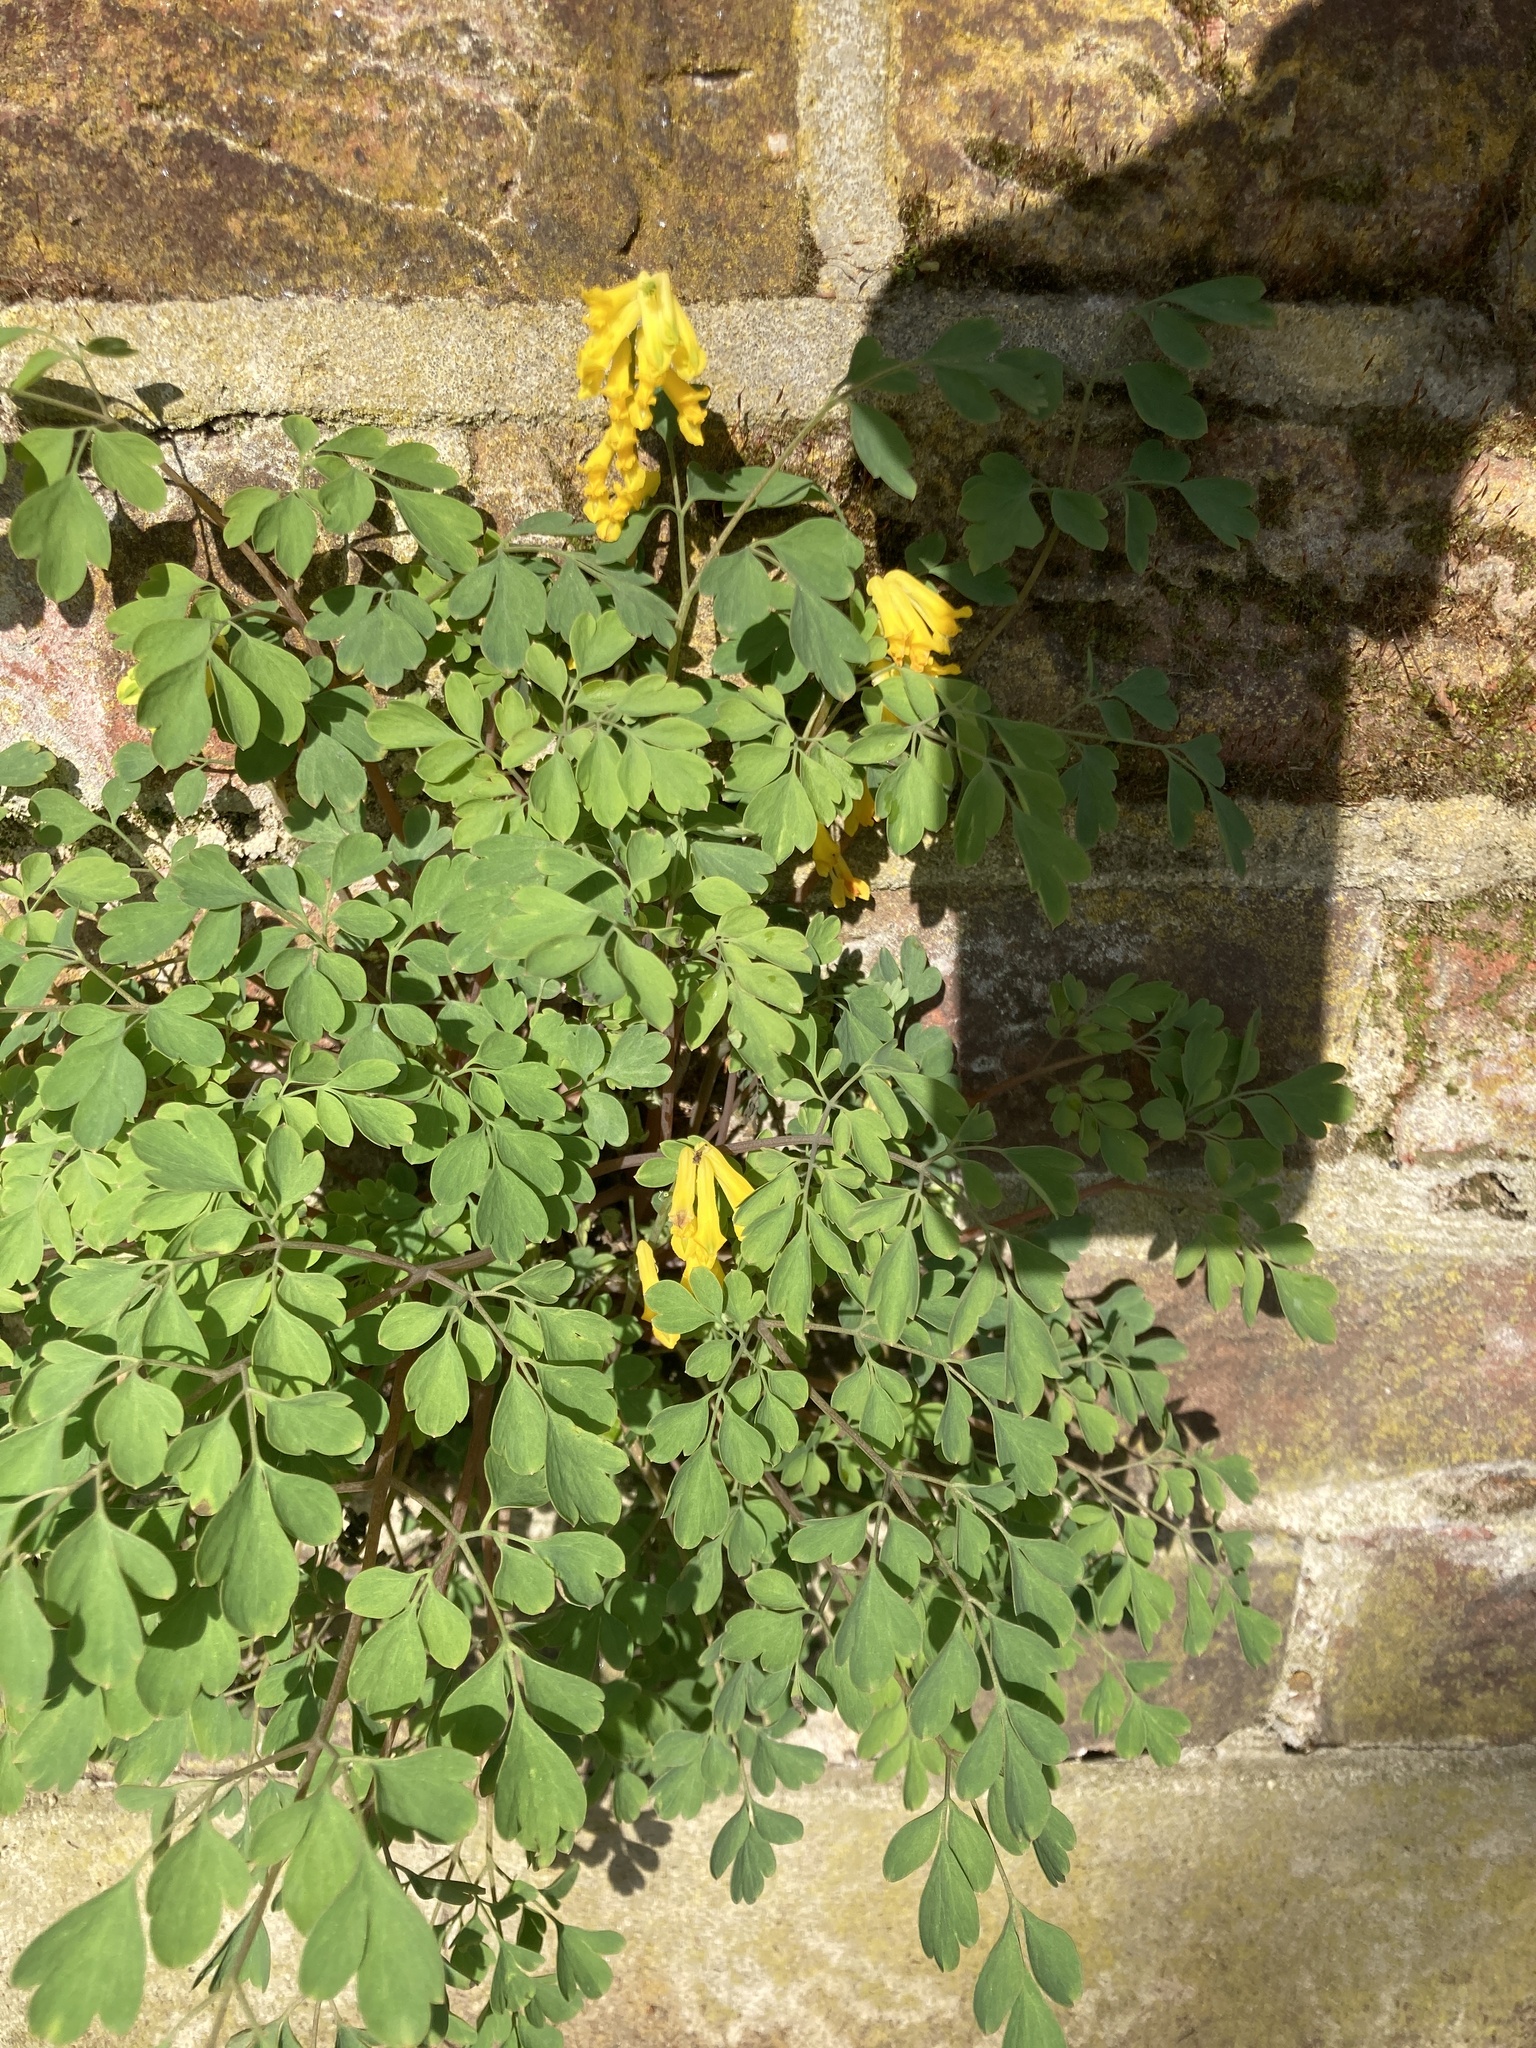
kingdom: Plantae
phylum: Tracheophyta
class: Magnoliopsida
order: Ranunculales
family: Papaveraceae
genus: Pseudofumaria
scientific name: Pseudofumaria lutea
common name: Yellow corydalis
